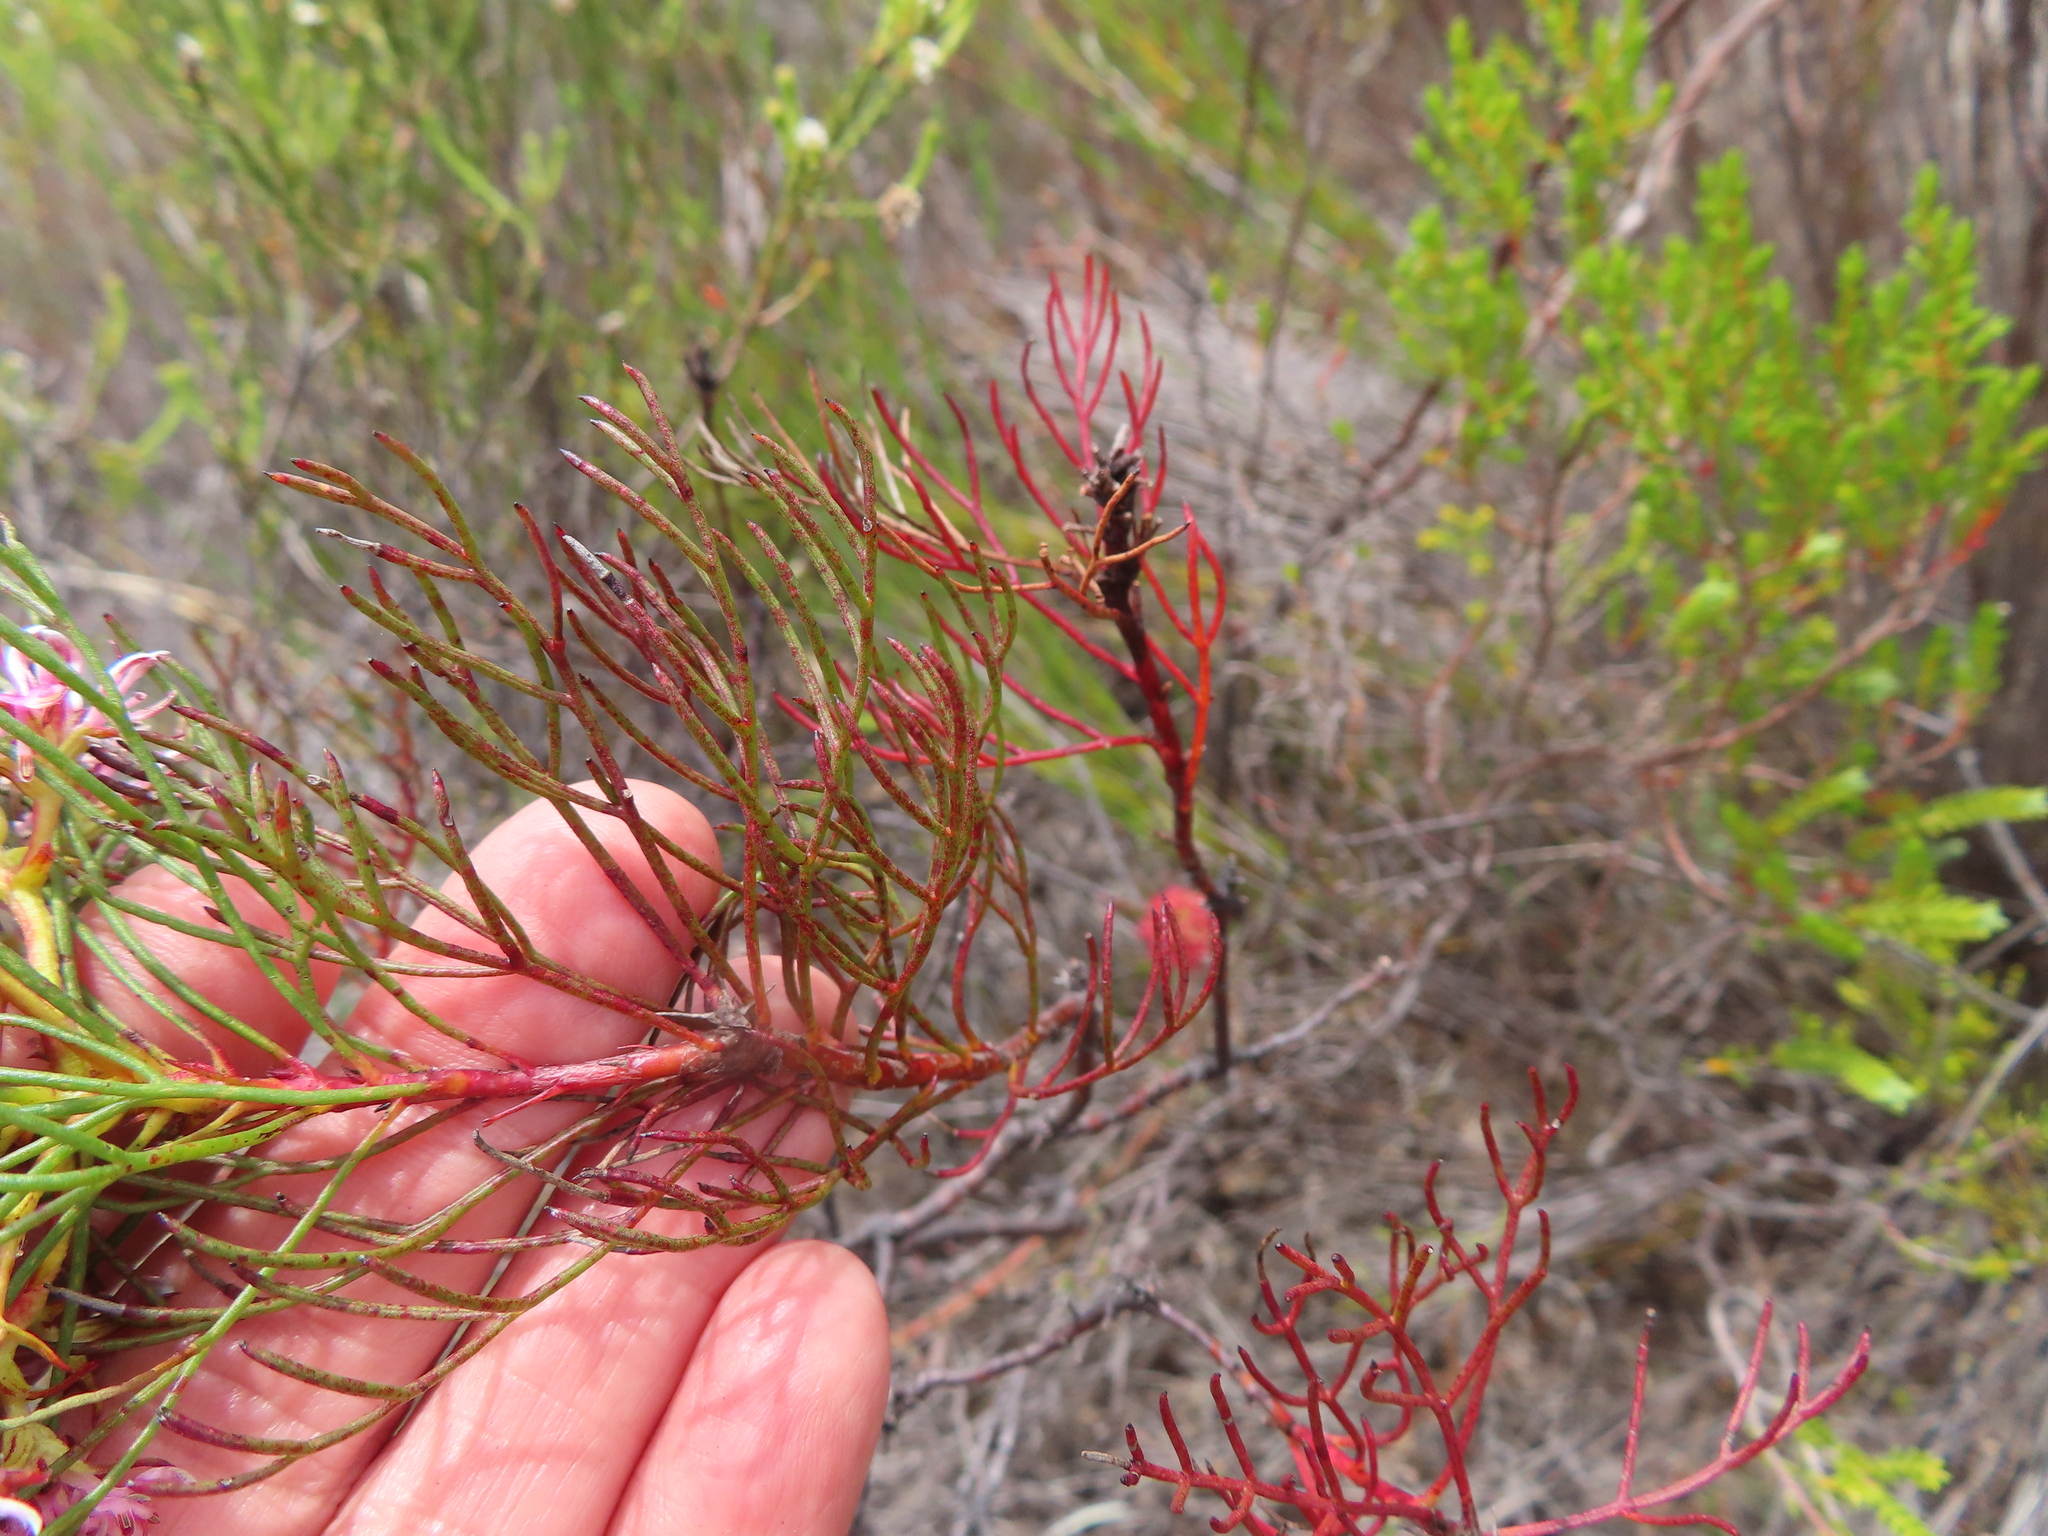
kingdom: Plantae
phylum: Tracheophyta
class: Magnoliopsida
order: Proteales
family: Proteaceae
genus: Serruria
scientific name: Serruria ascendens
